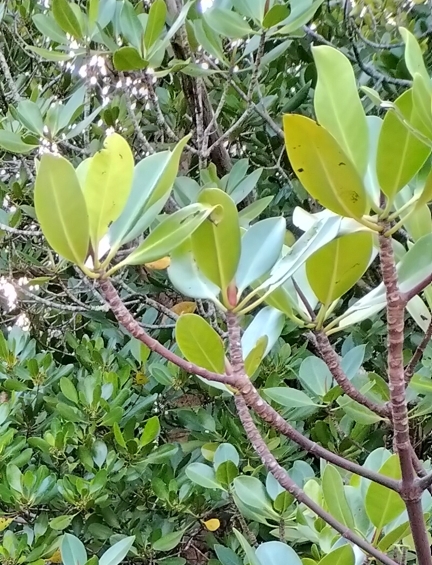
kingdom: Plantae
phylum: Tracheophyta
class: Magnoliopsida
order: Malpighiales
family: Rhizophoraceae
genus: Rhizophora
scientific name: Rhizophora stylosa
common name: Red mangrove
